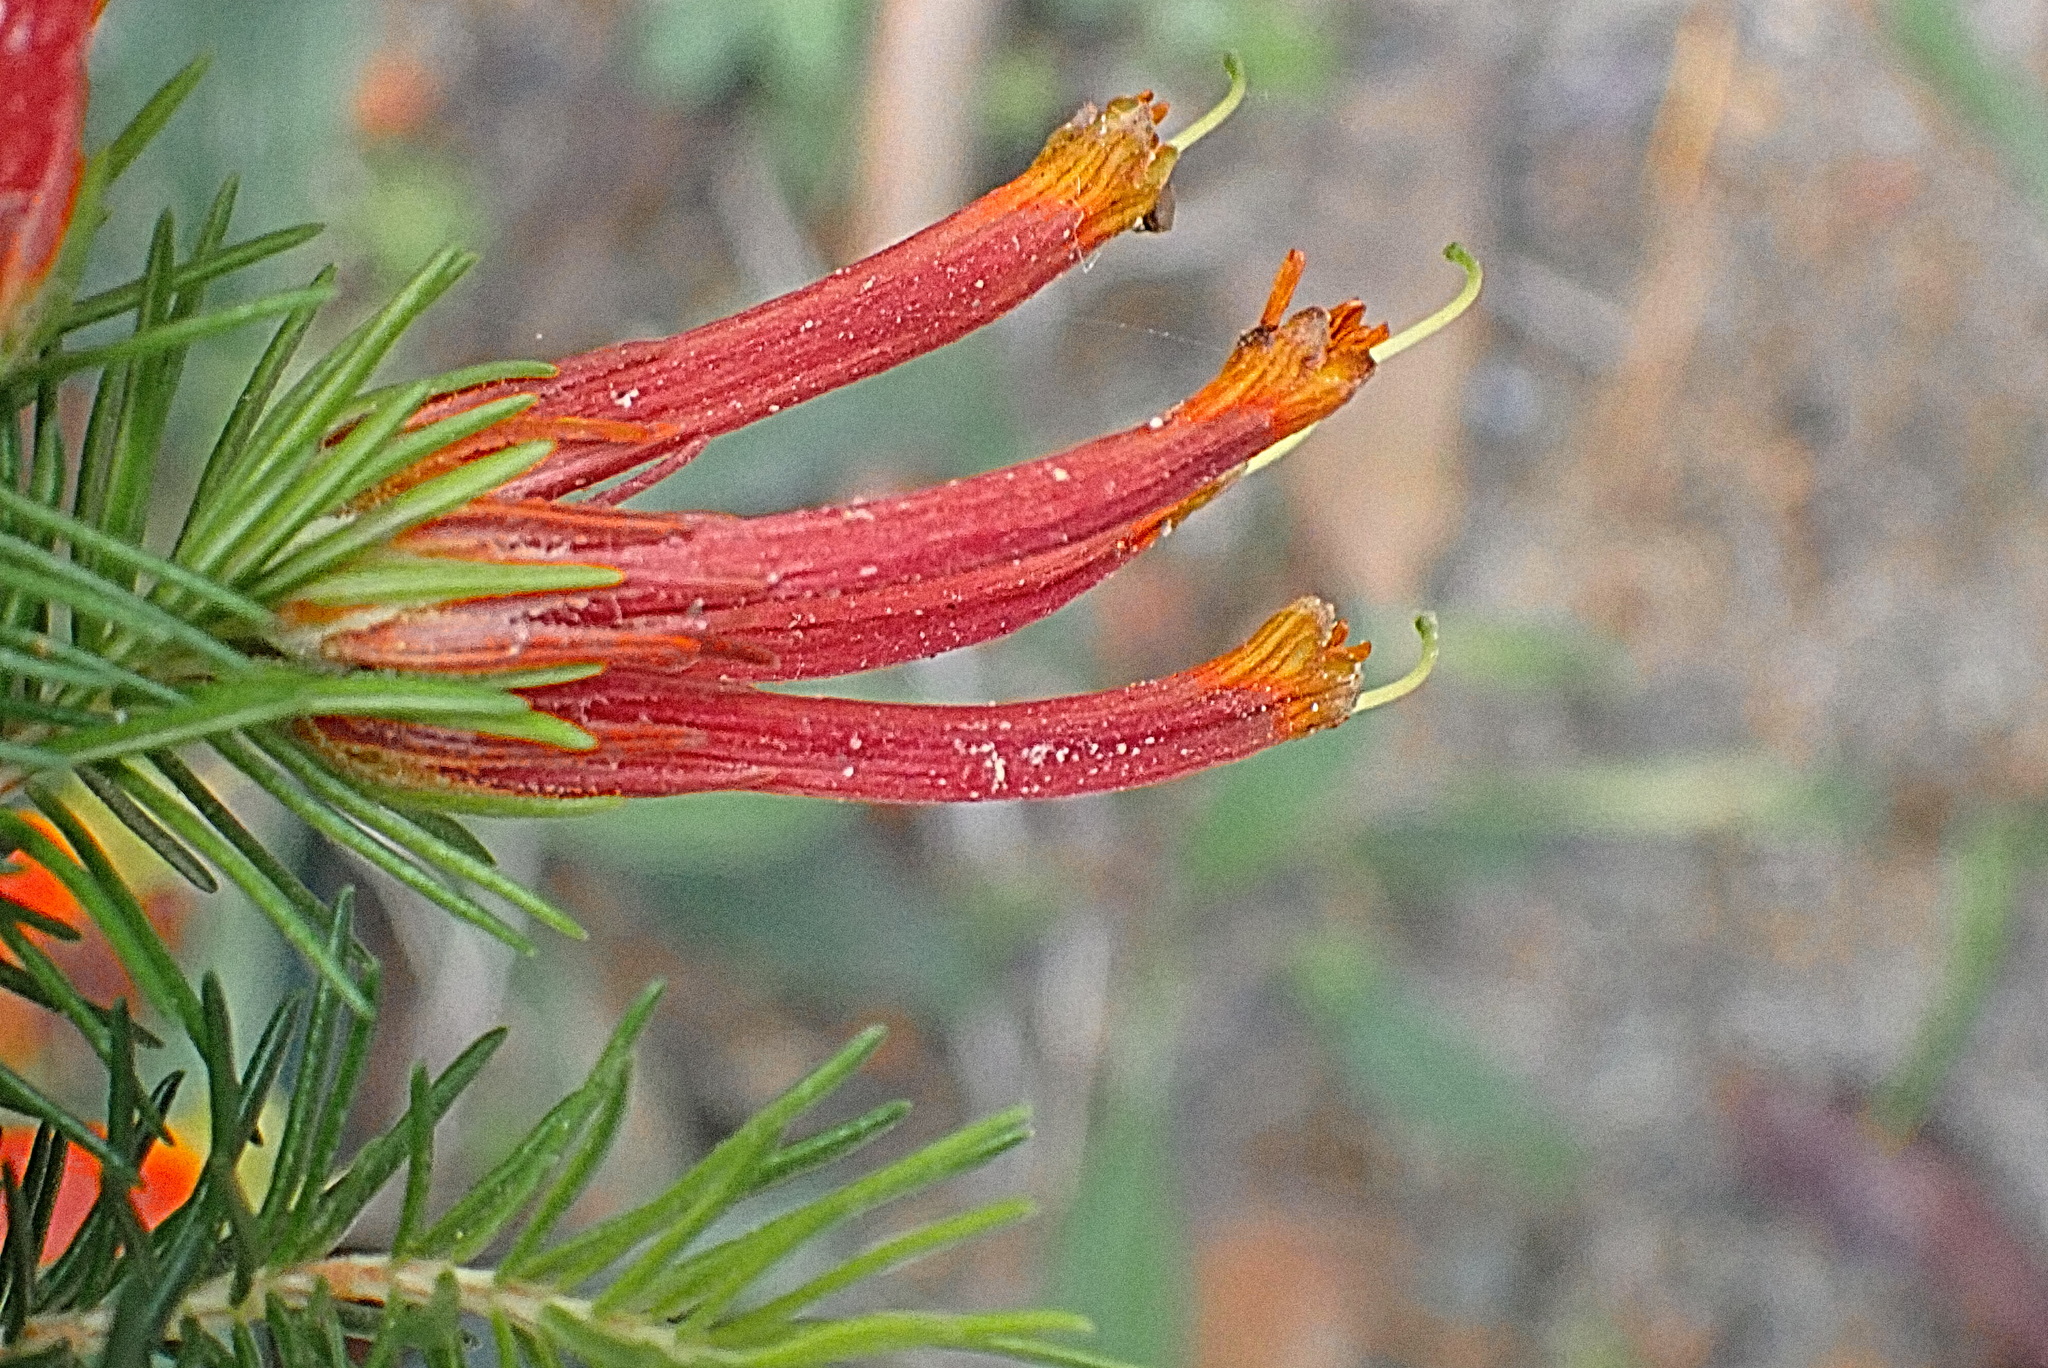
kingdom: Plantae
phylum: Tracheophyta
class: Magnoliopsida
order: Ericales
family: Ericaceae
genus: Erica
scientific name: Erica unicolor
